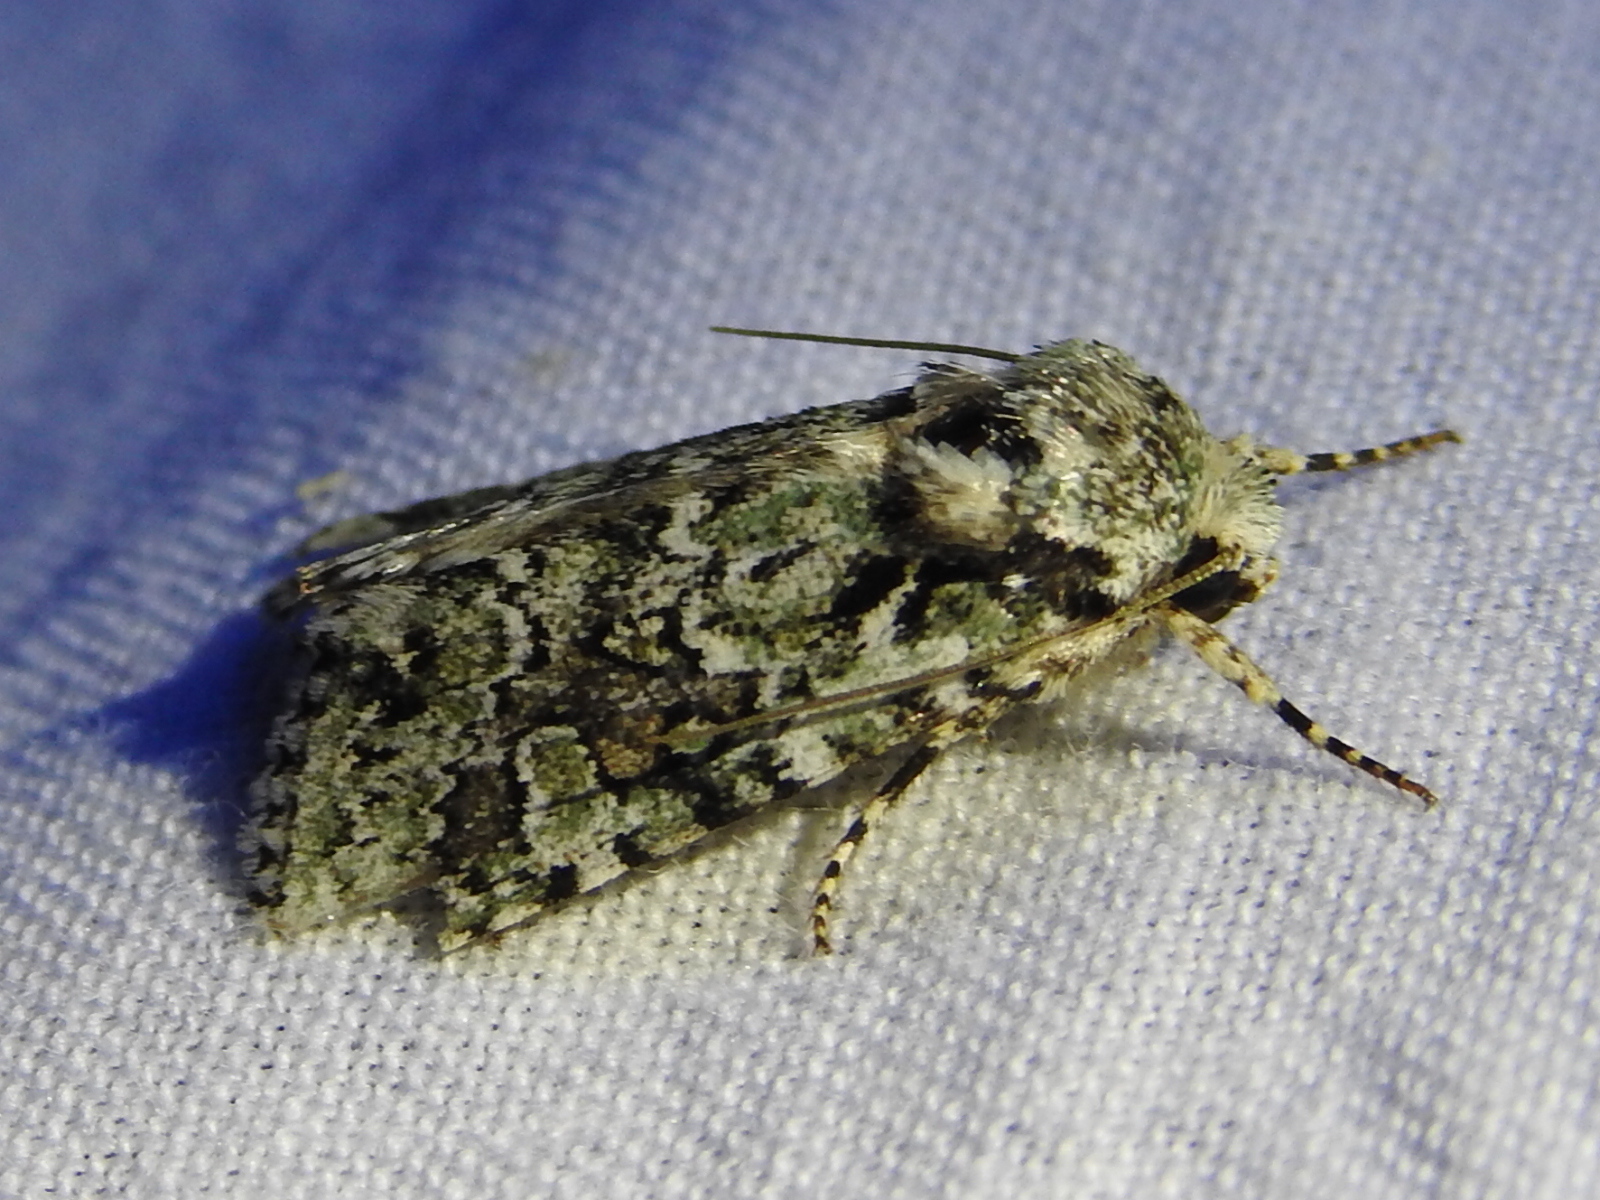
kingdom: Animalia
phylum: Arthropoda
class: Insecta
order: Lepidoptera
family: Noctuidae
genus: Lacinipolia
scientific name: Lacinipolia laudabilis
